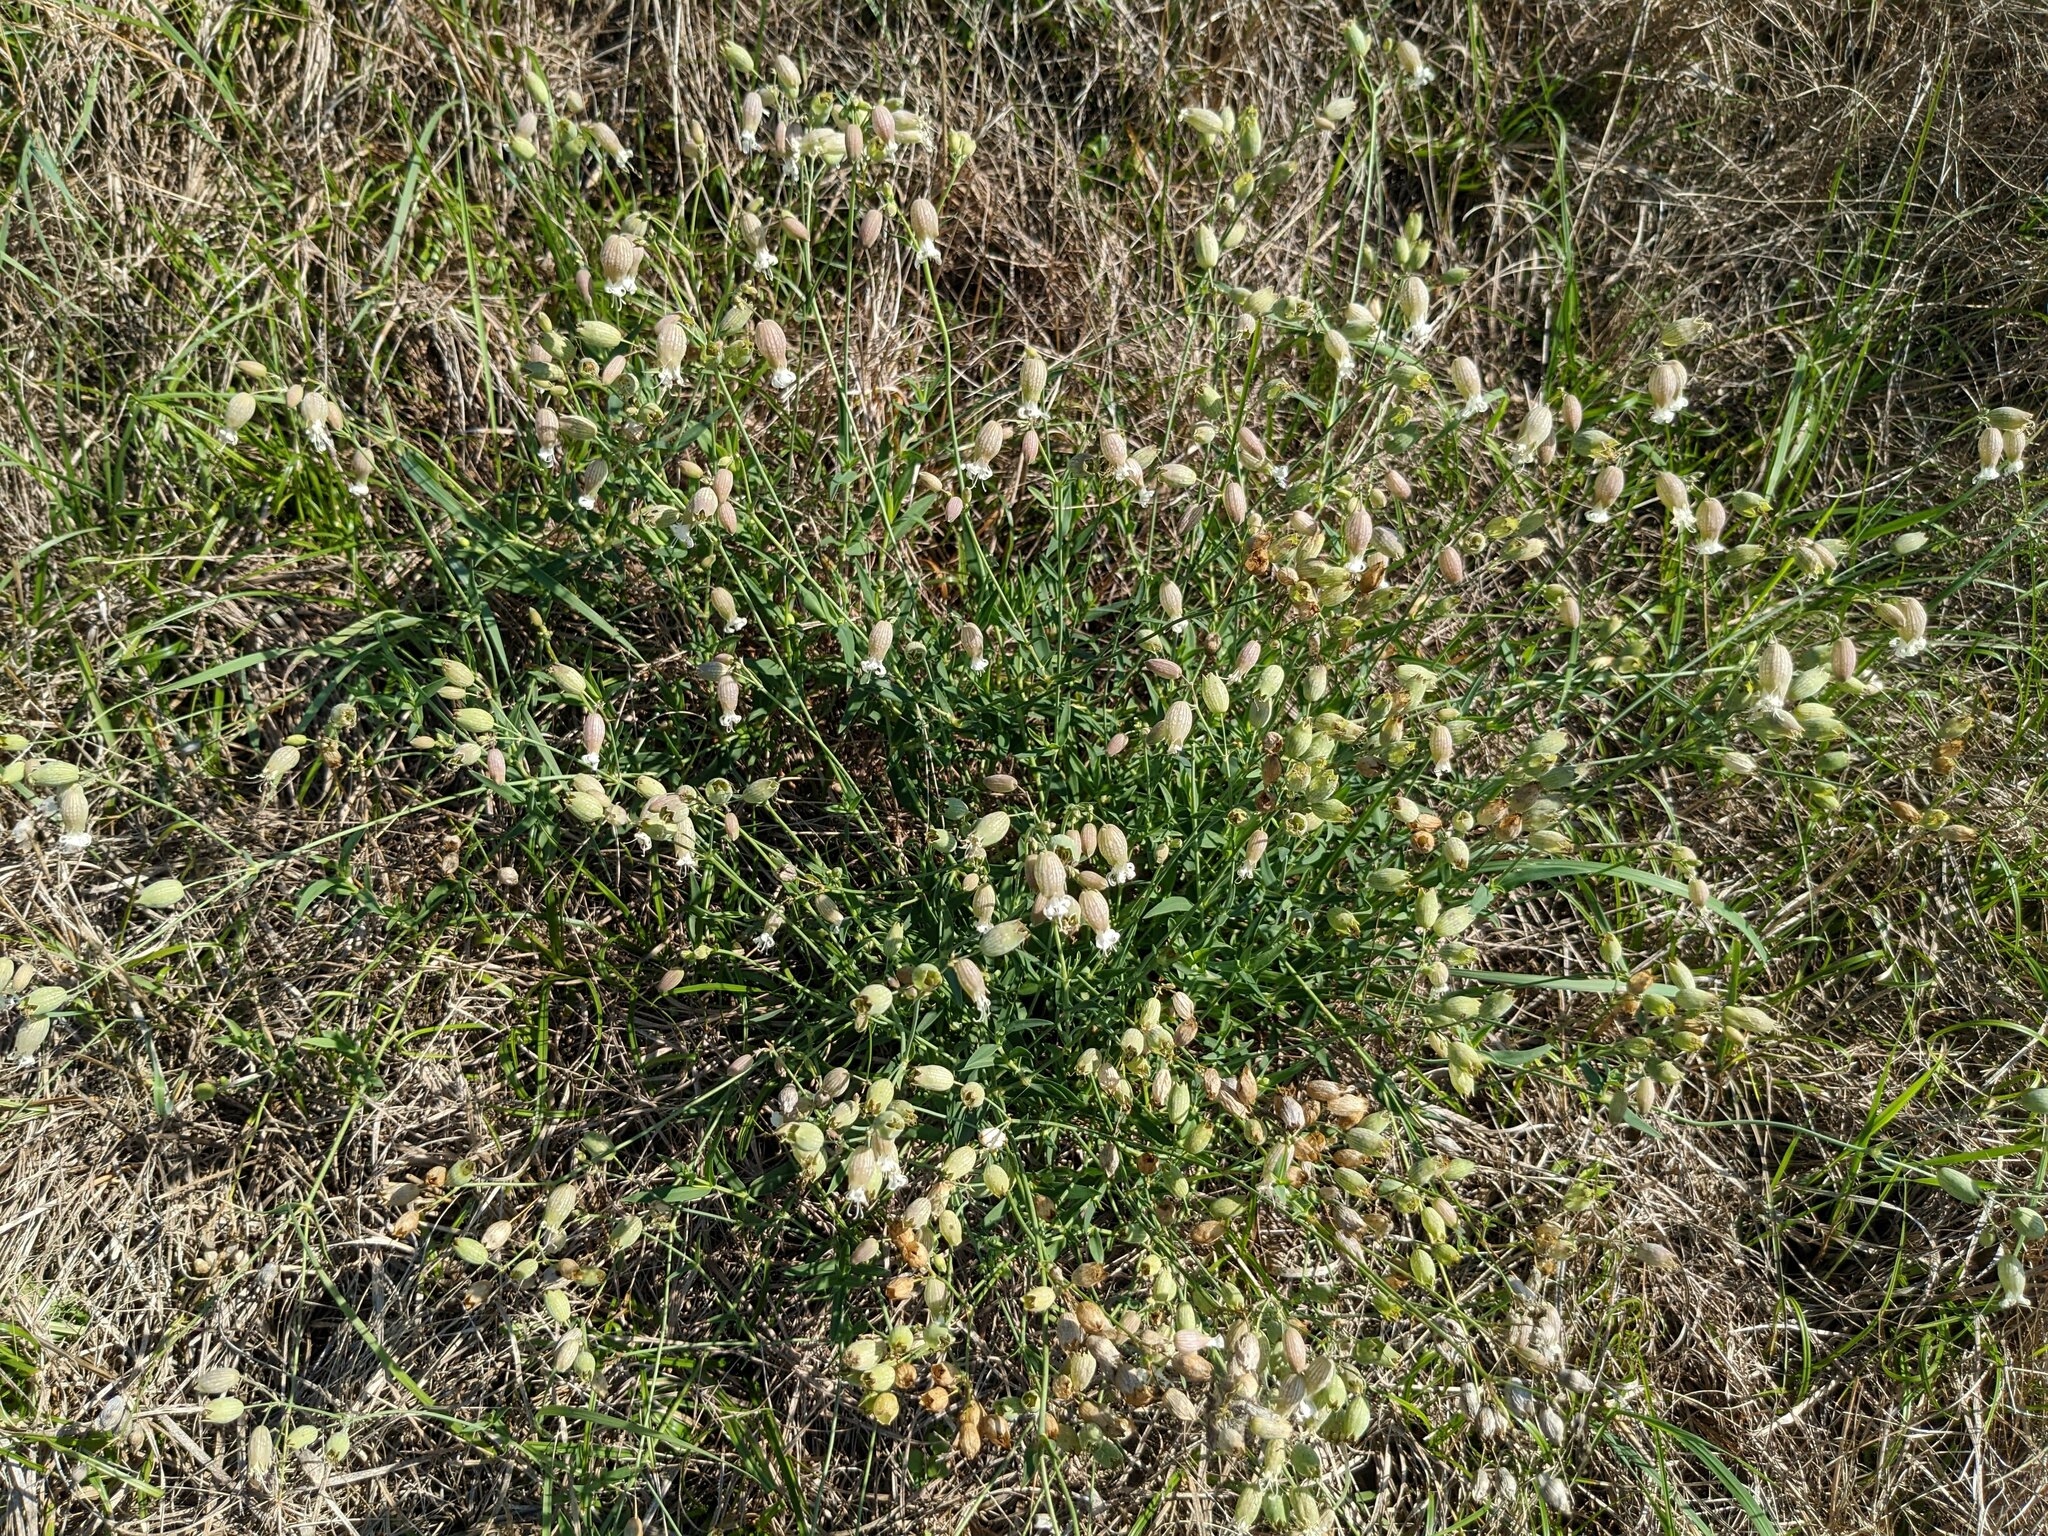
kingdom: Plantae
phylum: Tracheophyta
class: Magnoliopsida
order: Caryophyllales
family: Caryophyllaceae
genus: Silene
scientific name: Silene vulgaris
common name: Bladder campion
